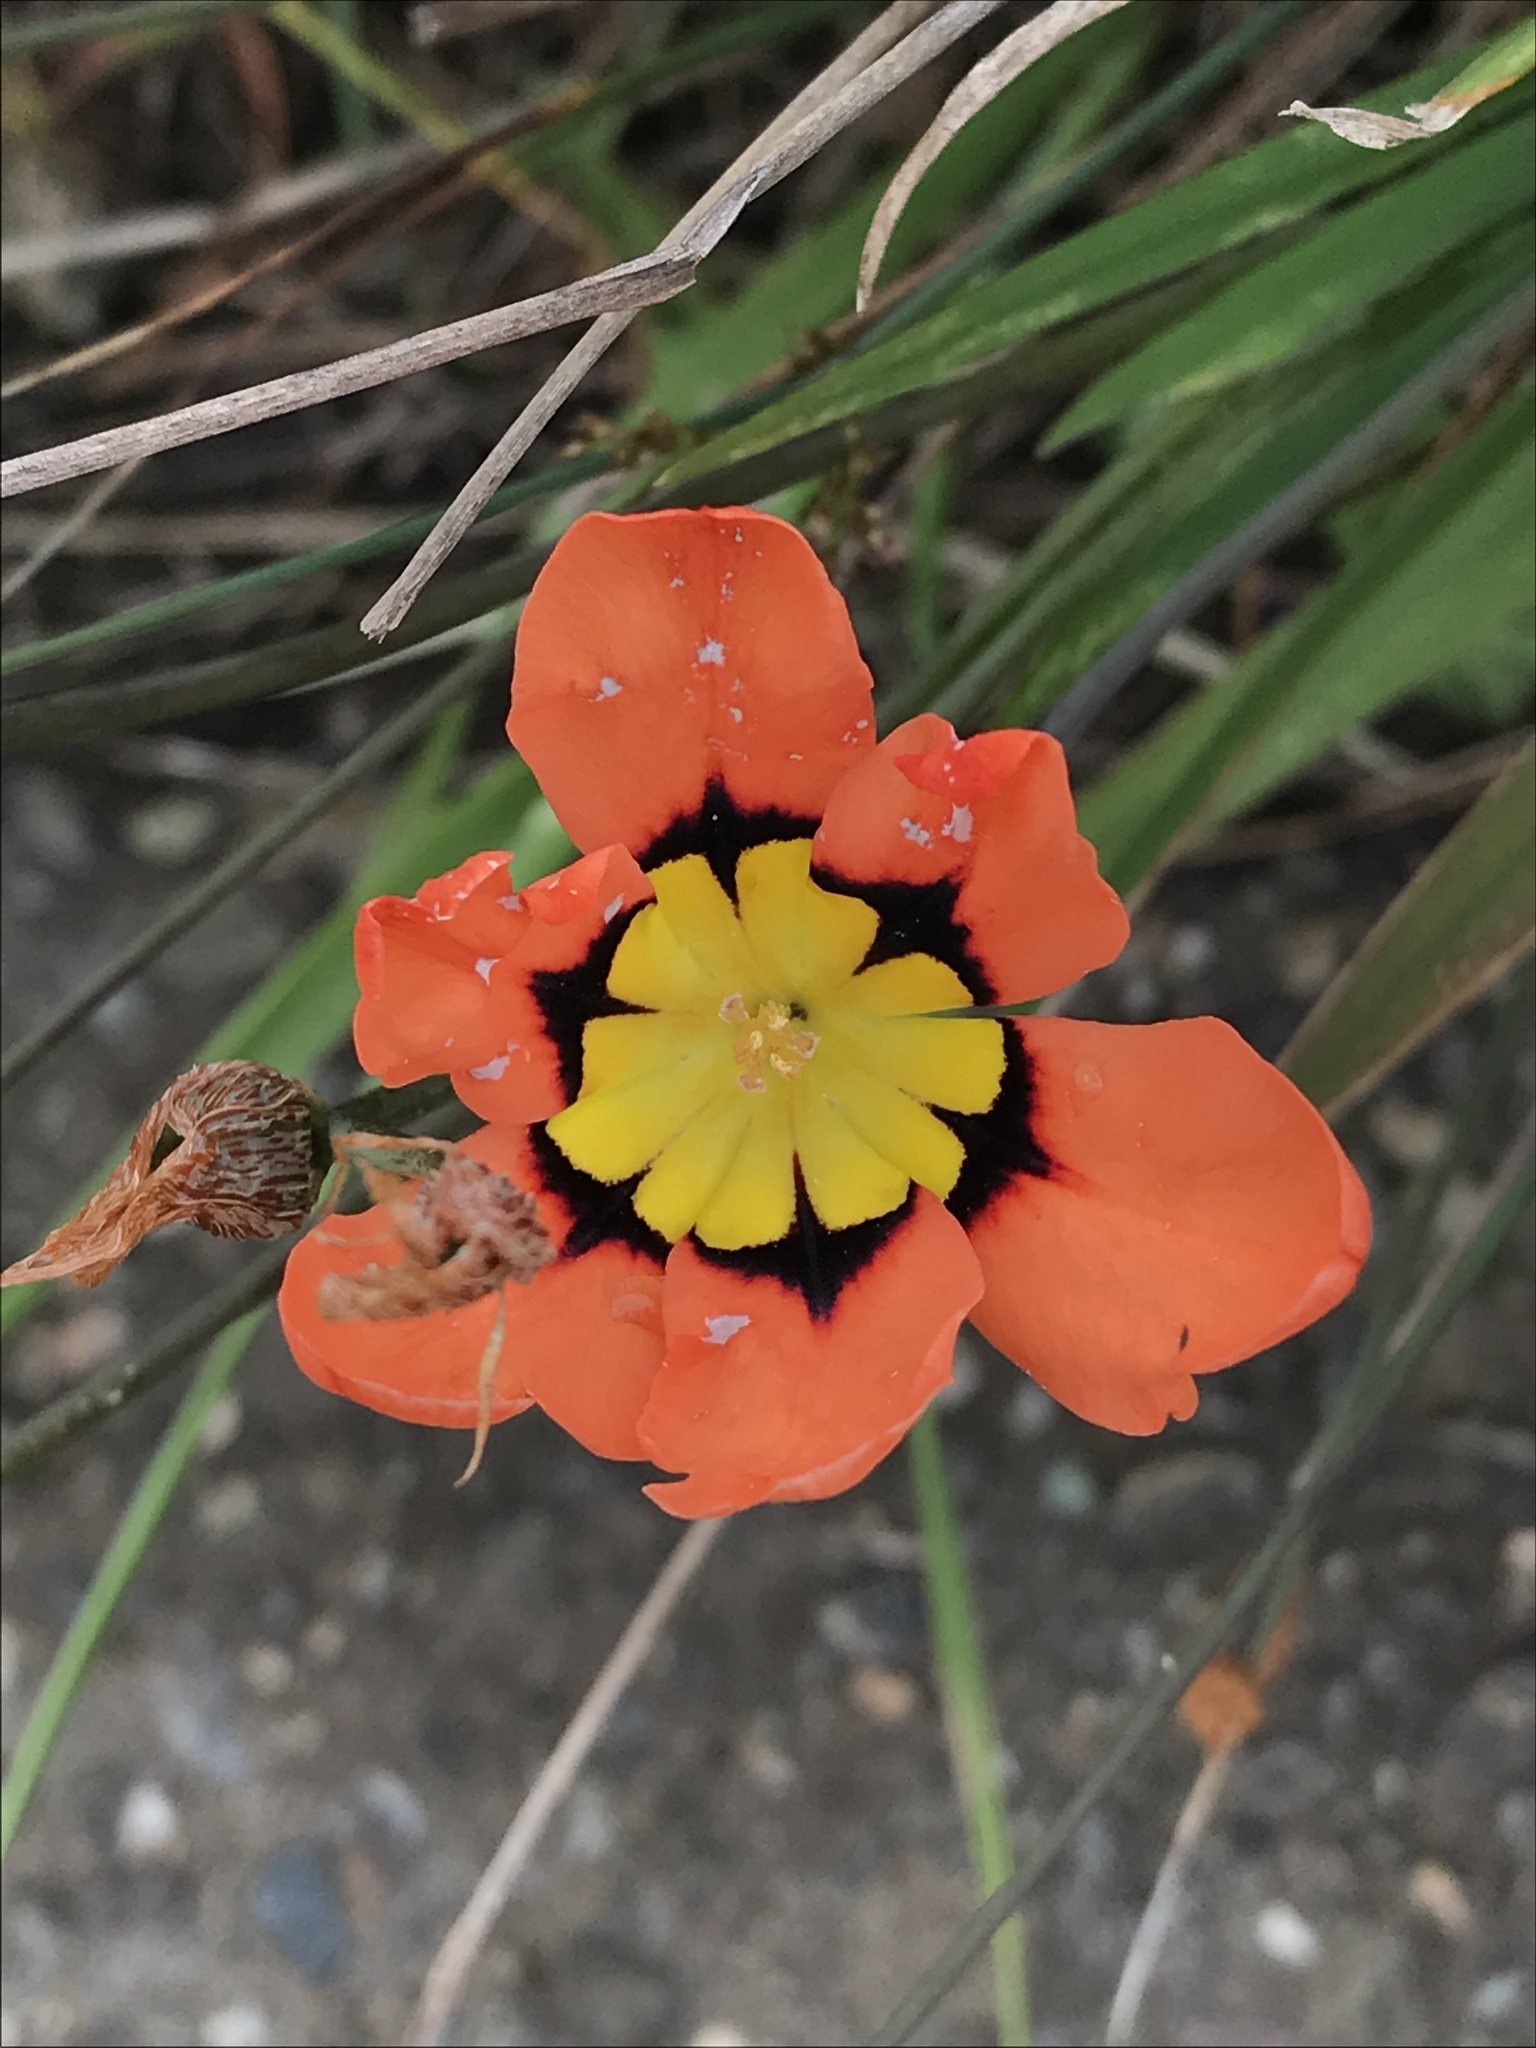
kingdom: Plantae
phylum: Tracheophyta
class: Liliopsida
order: Asparagales
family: Iridaceae
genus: Sparaxis
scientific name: Sparaxis tricolor
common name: Wandflower
